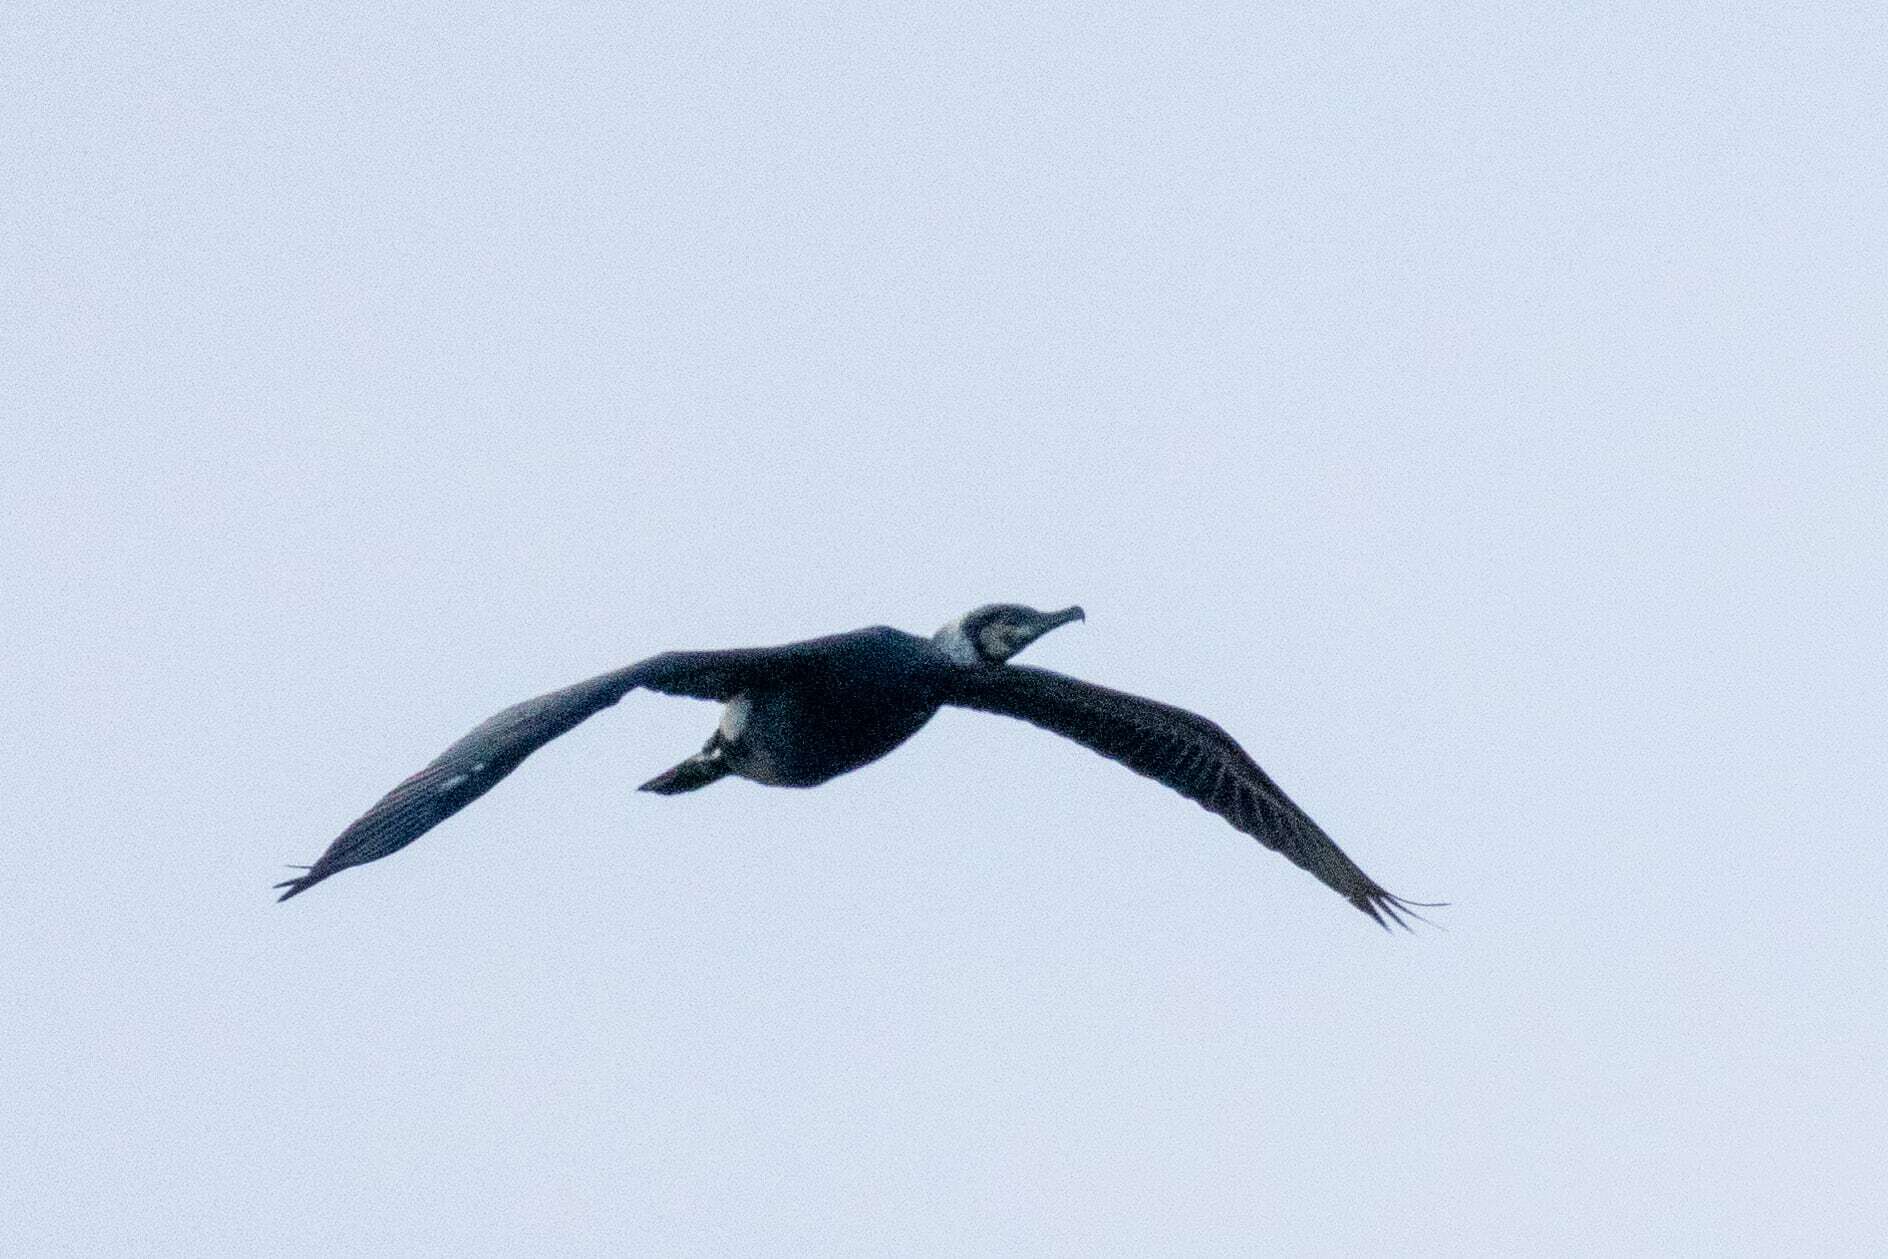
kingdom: Animalia
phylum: Chordata
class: Aves
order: Suliformes
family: Phalacrocoracidae
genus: Phalacrocorax
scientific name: Phalacrocorax carbo
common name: Great cormorant
